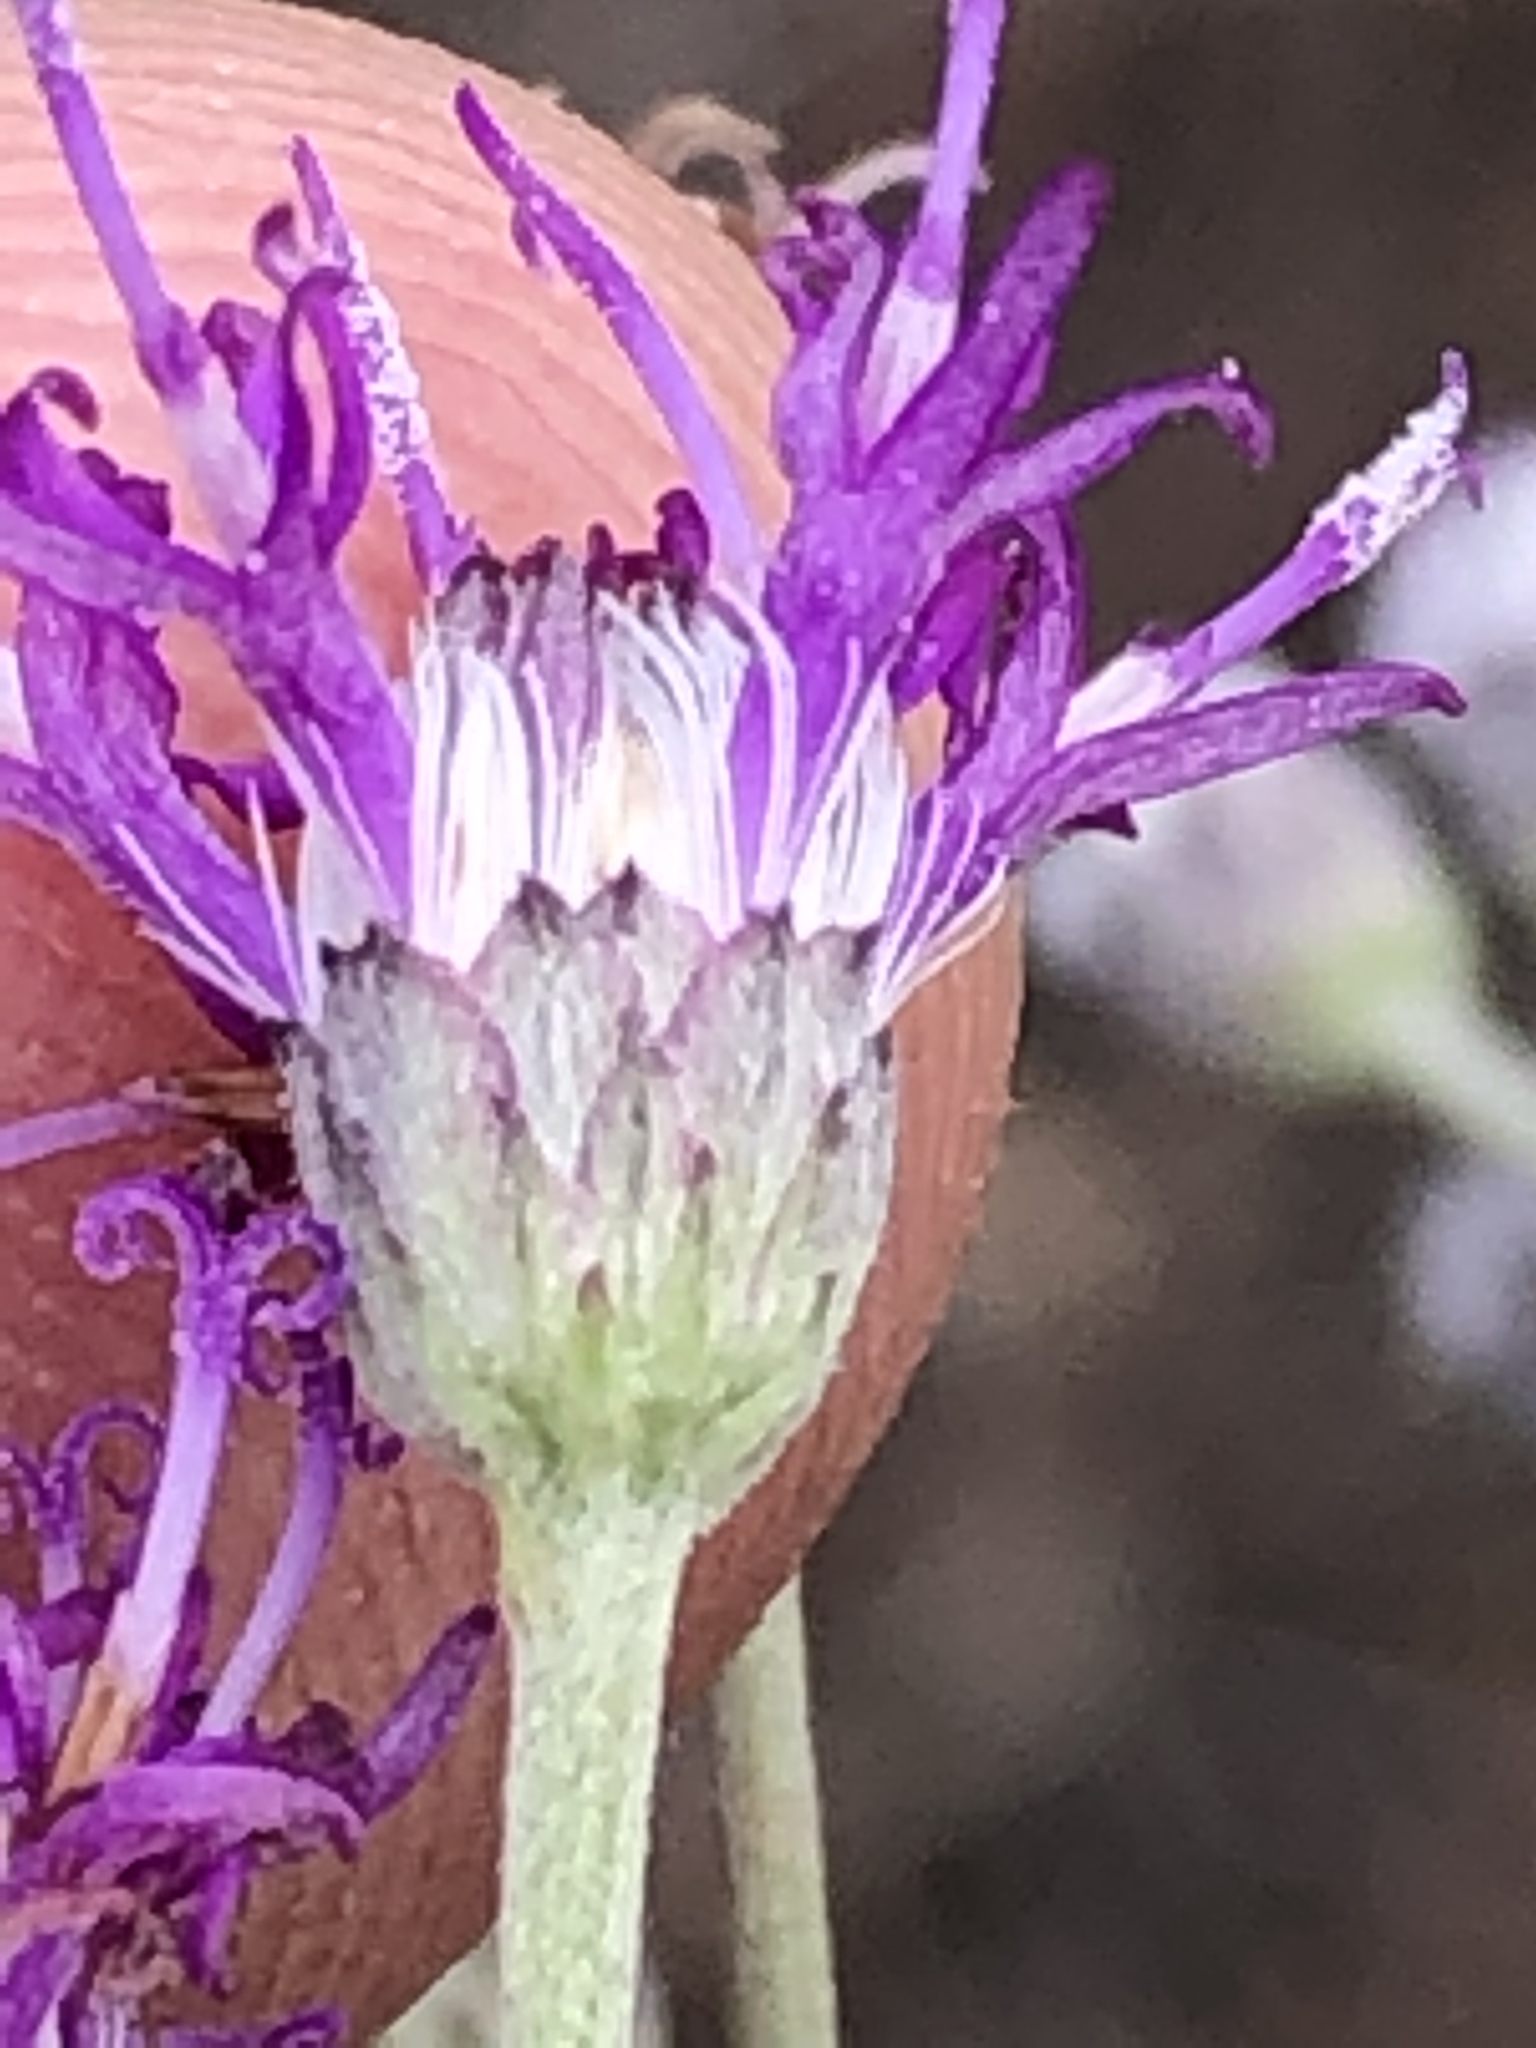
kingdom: Plantae
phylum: Tracheophyta
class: Magnoliopsida
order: Asterales
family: Asteraceae
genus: Hilliardiella
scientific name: Hilliardiella capensis
